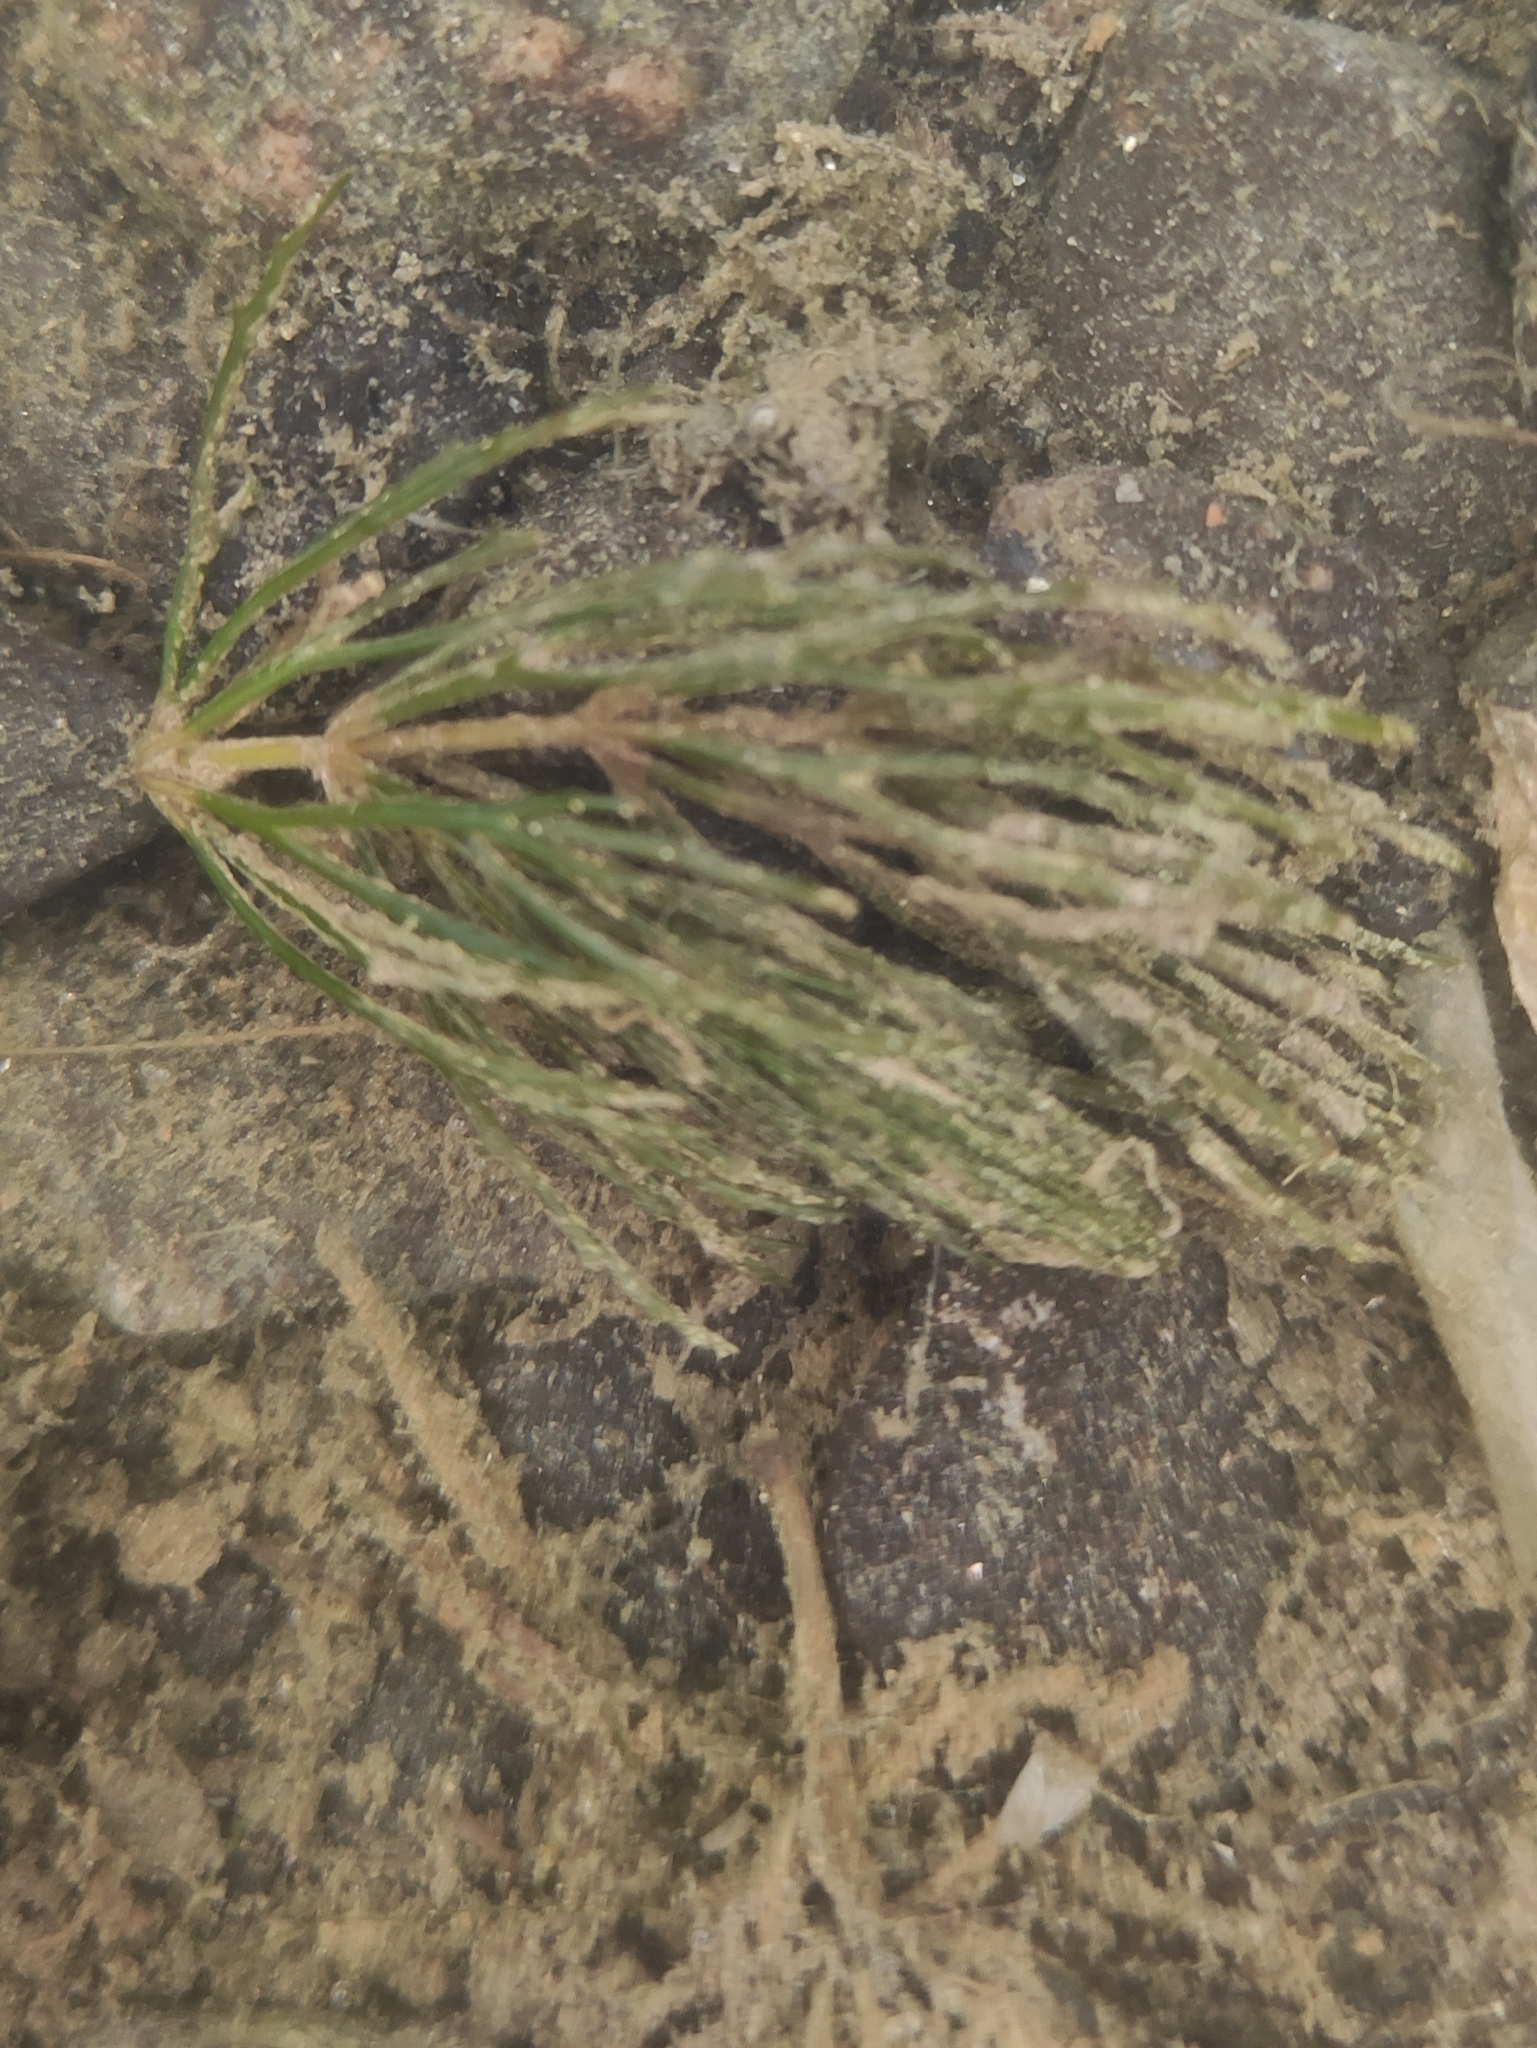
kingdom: Plantae
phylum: Tracheophyta
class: Magnoliopsida
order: Ceratophyllales
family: Ceratophyllaceae
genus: Ceratophyllum
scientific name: Ceratophyllum demersum
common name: Rigid hornwort
